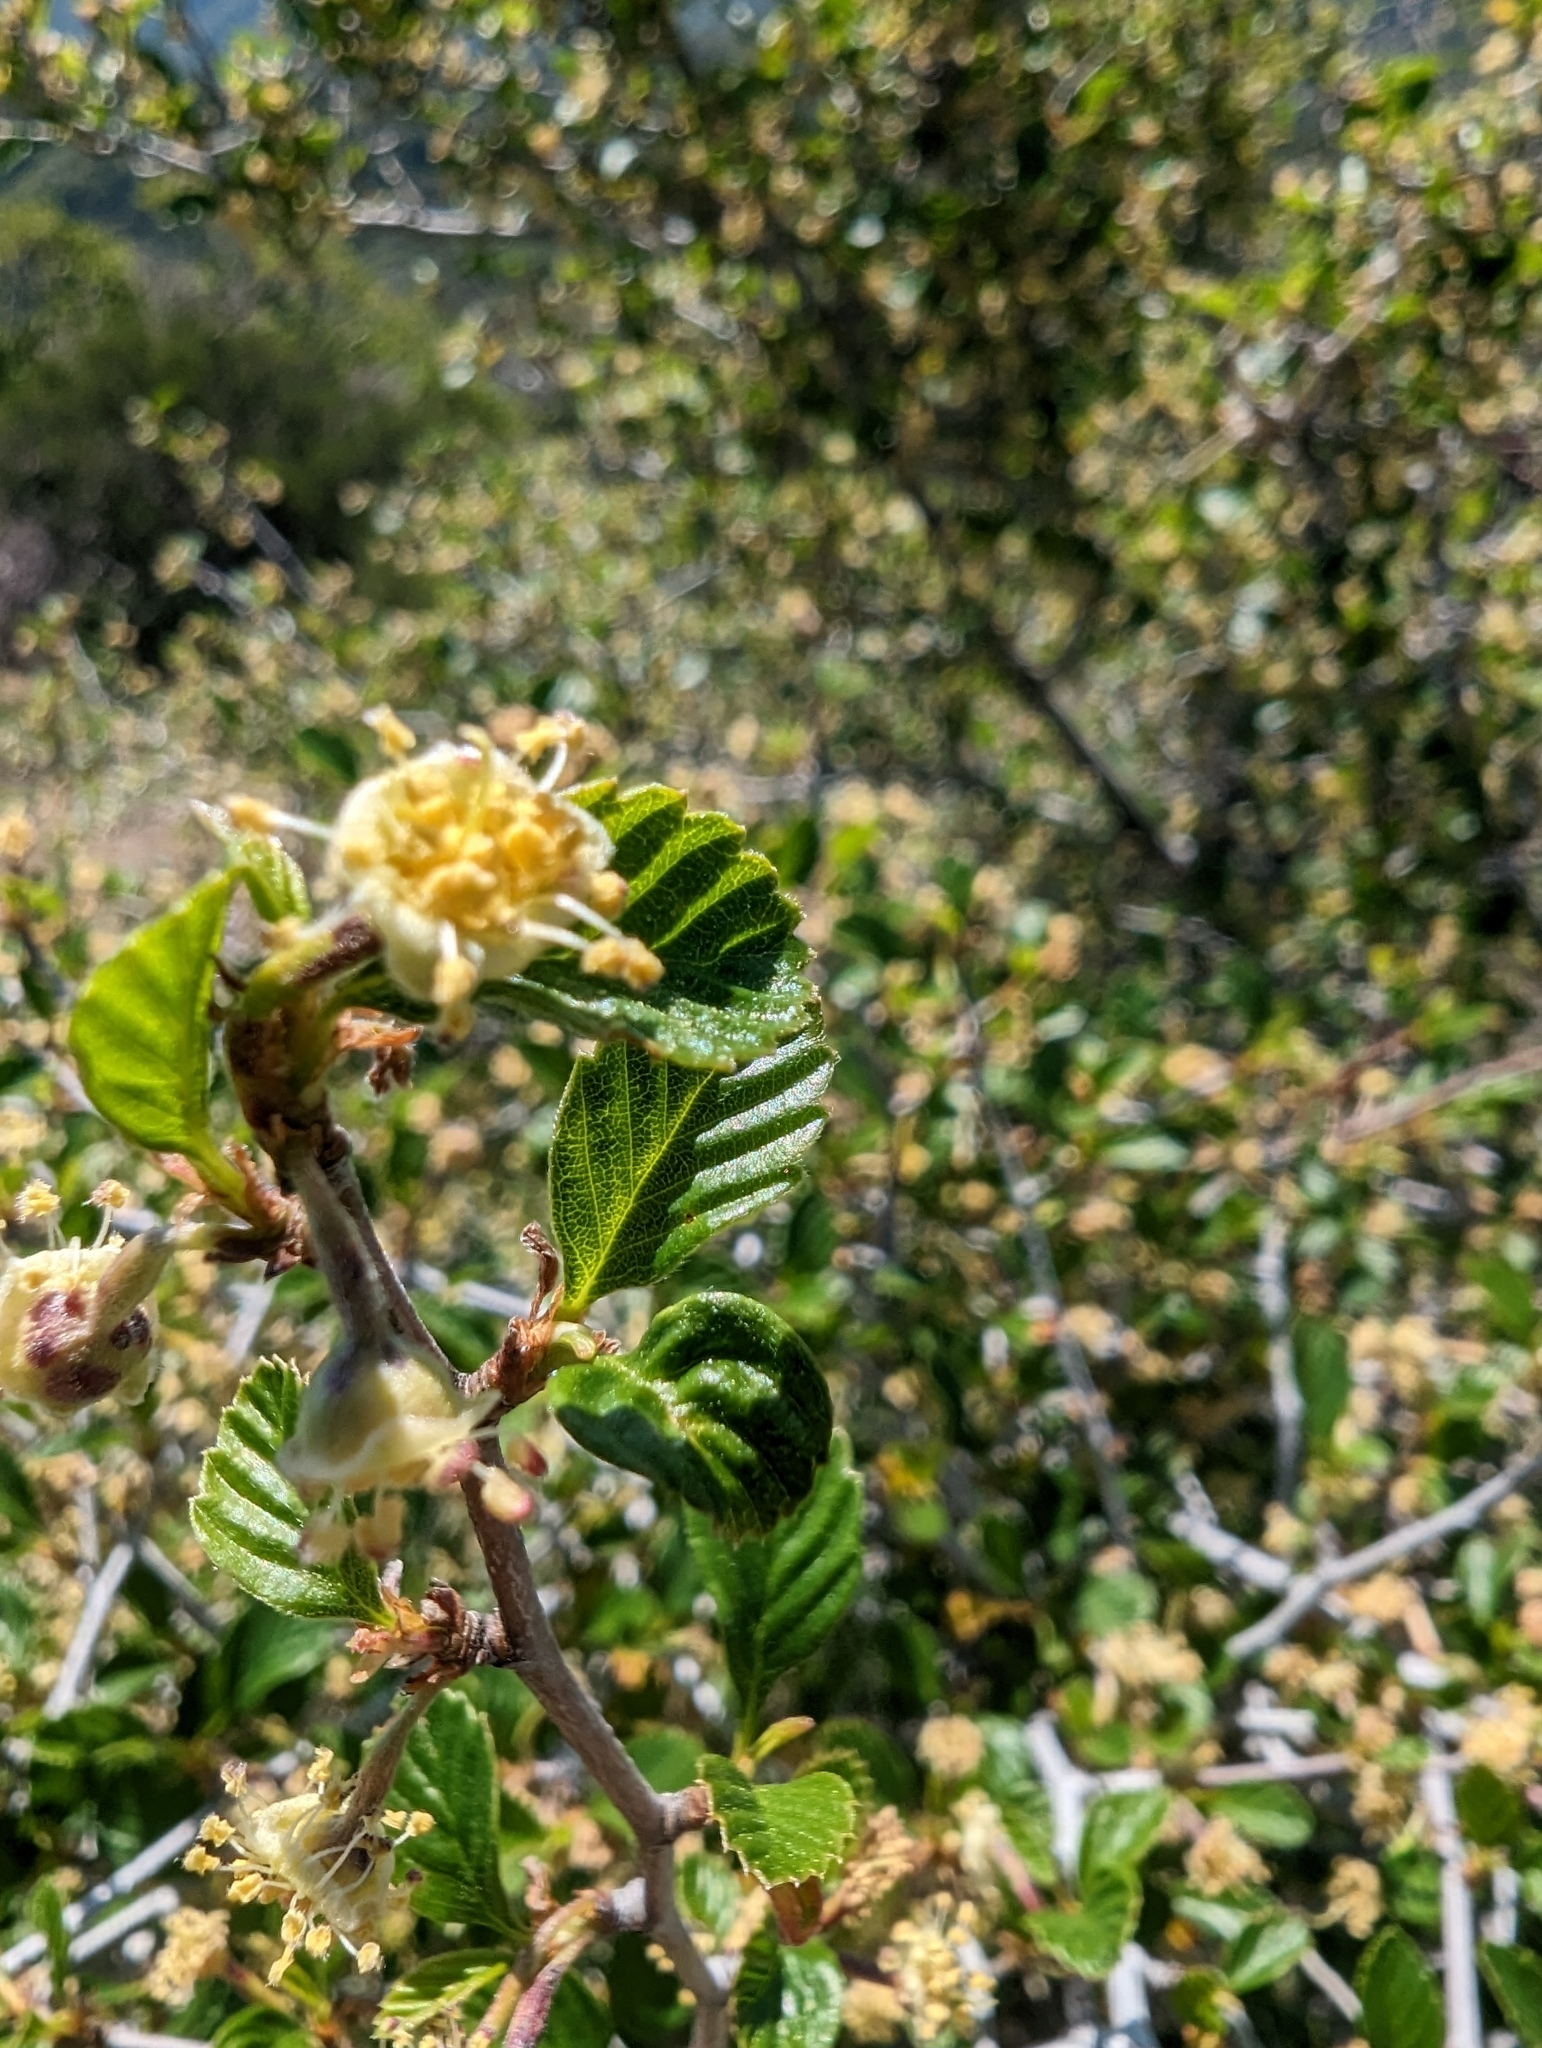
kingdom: Plantae
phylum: Tracheophyta
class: Magnoliopsida
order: Rosales
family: Rosaceae
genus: Cercocarpus
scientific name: Cercocarpus betuloides
